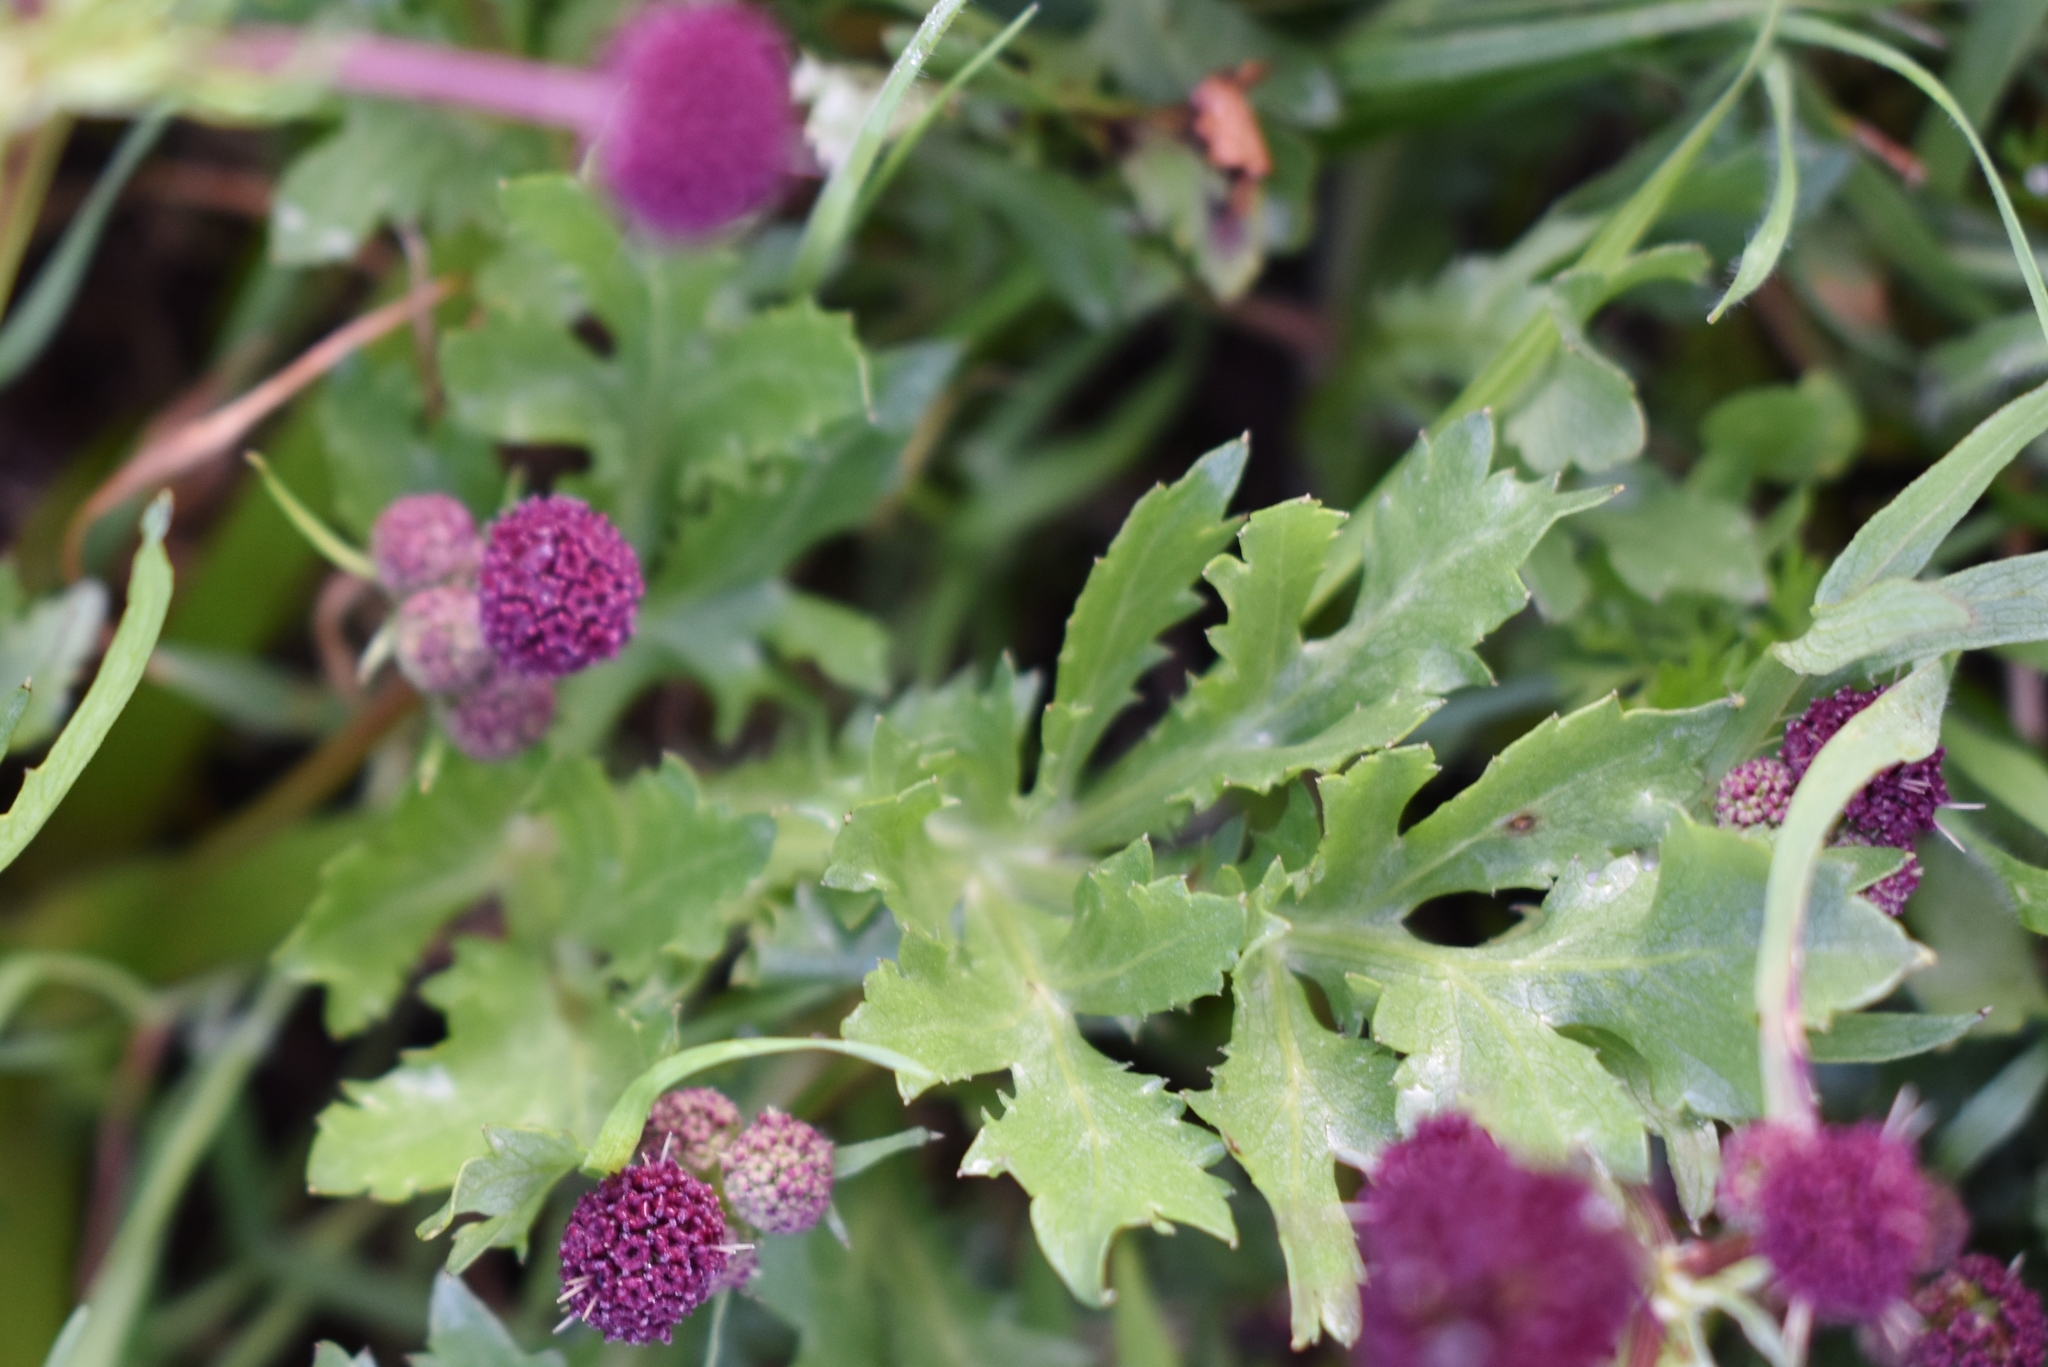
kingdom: Plantae
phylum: Tracheophyta
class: Magnoliopsida
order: Apiales
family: Apiaceae
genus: Sanicula
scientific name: Sanicula bipinnatifida
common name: Shoe-buttons
